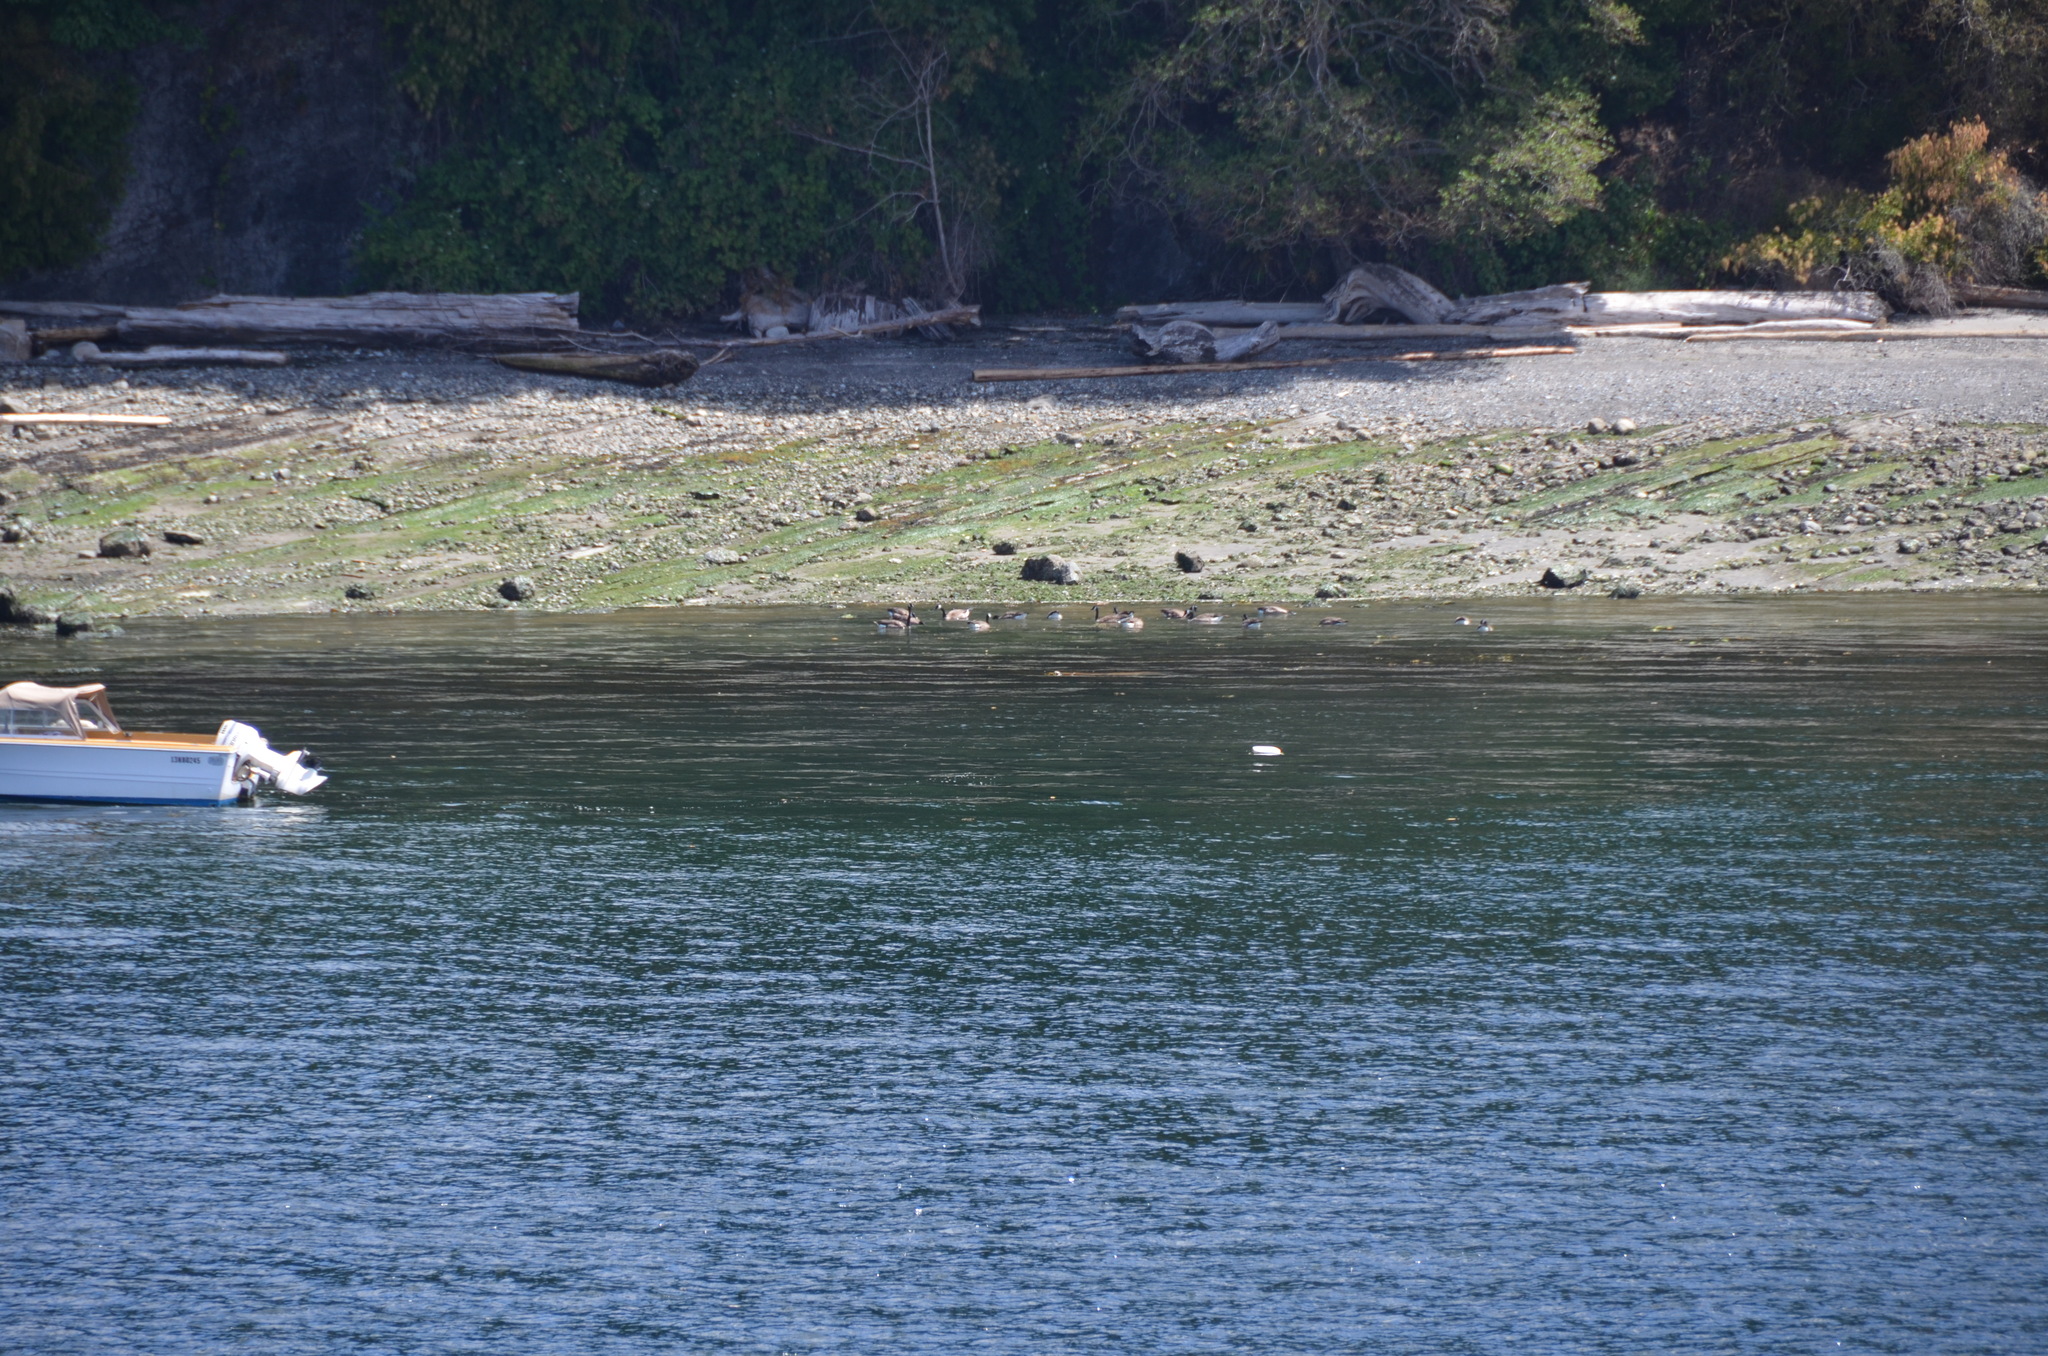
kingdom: Animalia
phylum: Chordata
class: Aves
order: Anseriformes
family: Anatidae
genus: Branta
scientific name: Branta canadensis
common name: Canada goose
